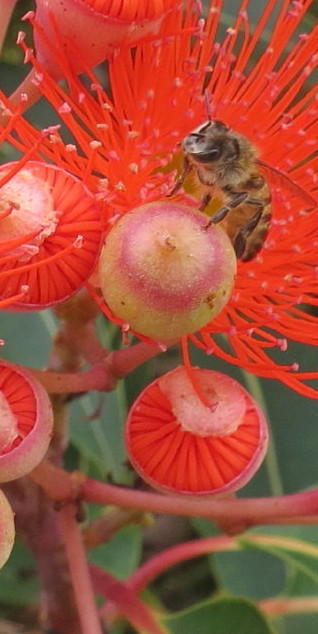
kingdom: Animalia
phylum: Arthropoda
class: Insecta
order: Hymenoptera
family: Apidae
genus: Apis
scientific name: Apis mellifera
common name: Honey bee
